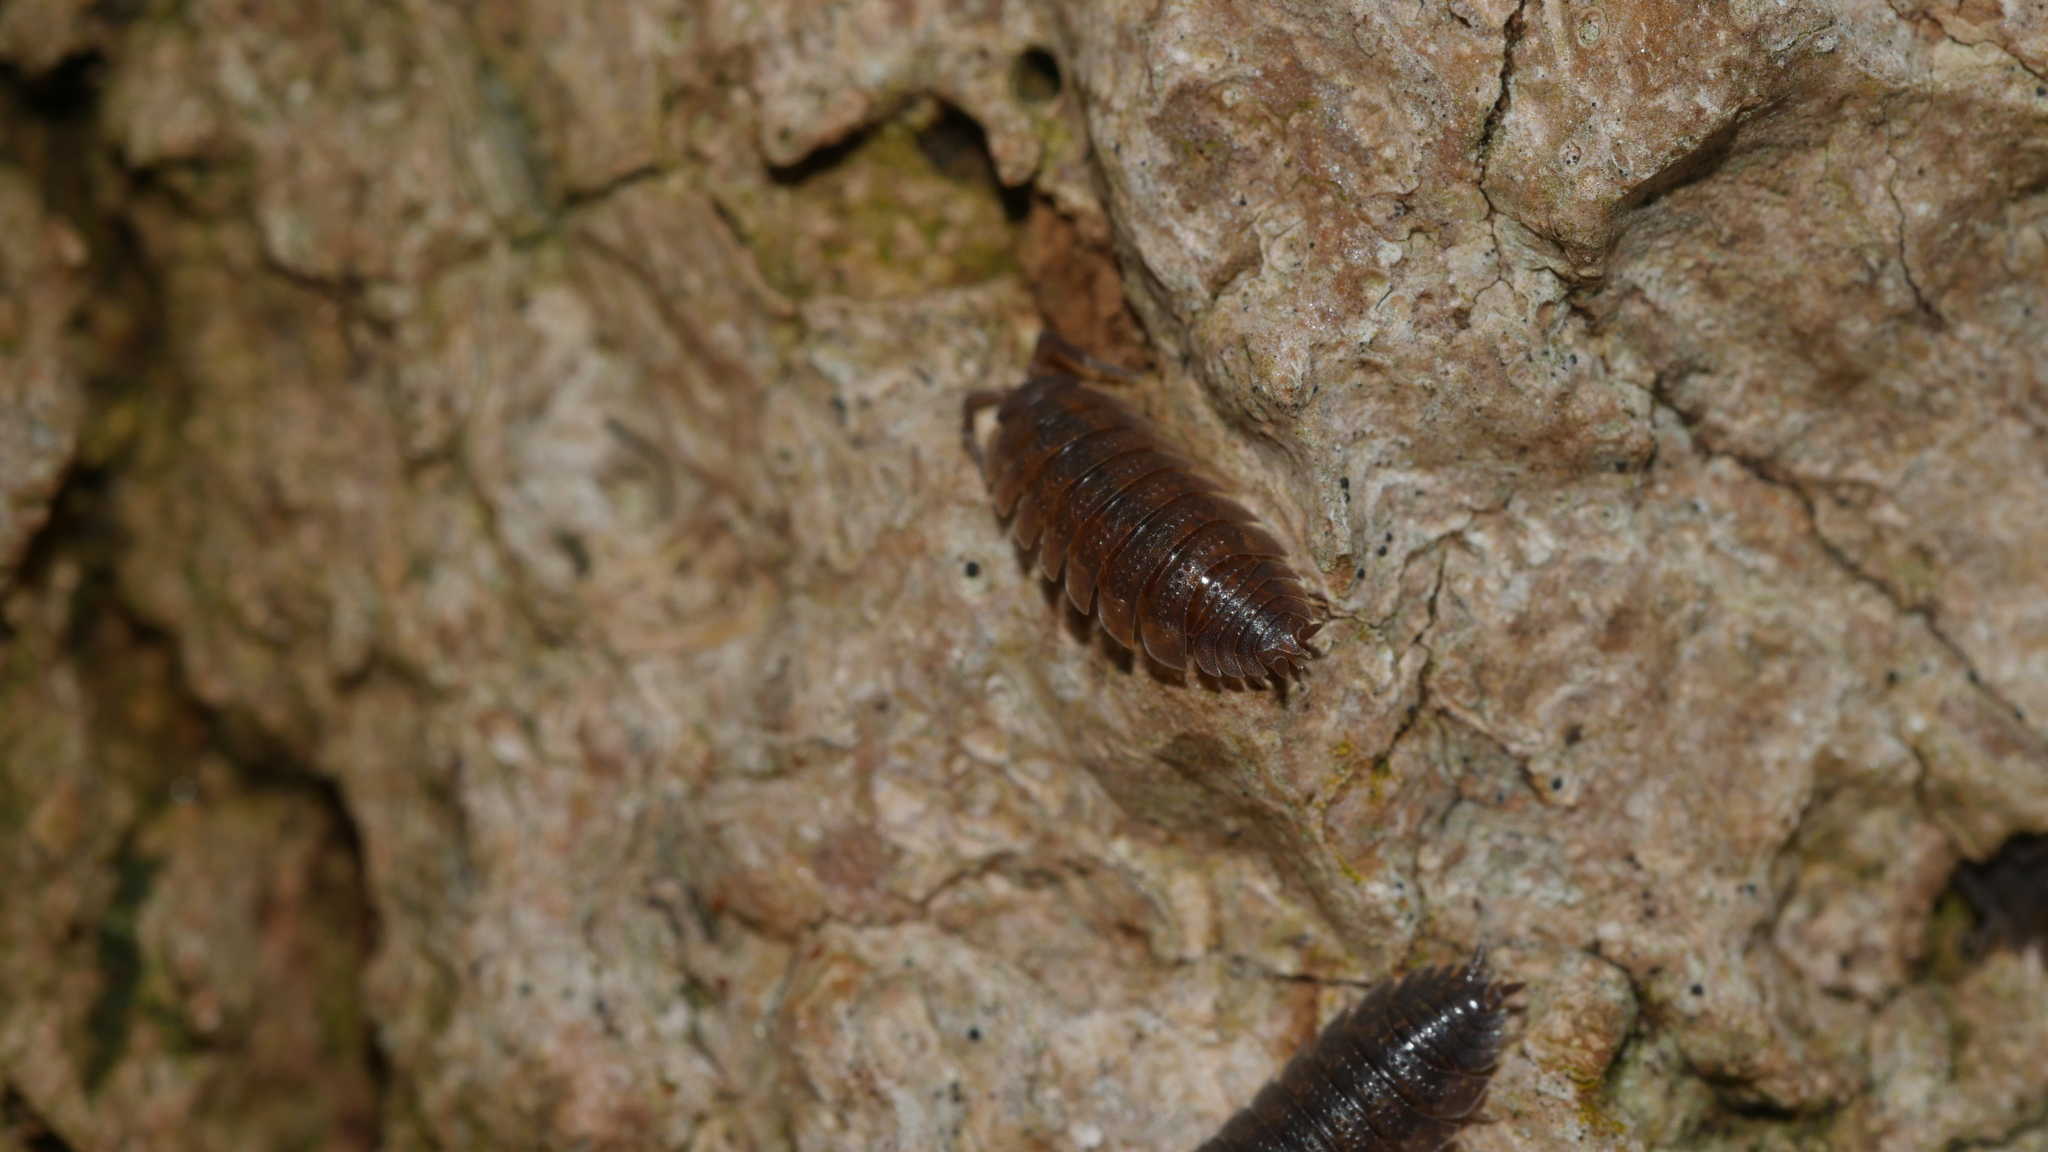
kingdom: Animalia
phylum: Arthropoda
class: Malacostraca
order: Isopoda
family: Porcellionidae
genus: Porcellio
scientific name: Porcellio scaber
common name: Common rough woodlouse
